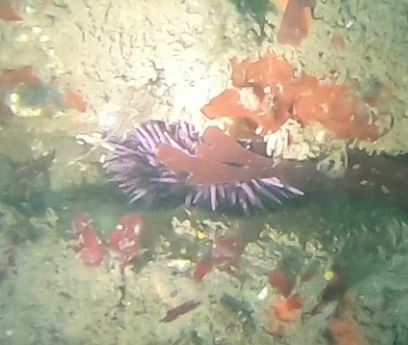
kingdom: Animalia
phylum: Echinodermata
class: Echinoidea
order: Camarodonta
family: Strongylocentrotidae
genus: Strongylocentrotus
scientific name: Strongylocentrotus purpuratus
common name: Purple sea urchin
